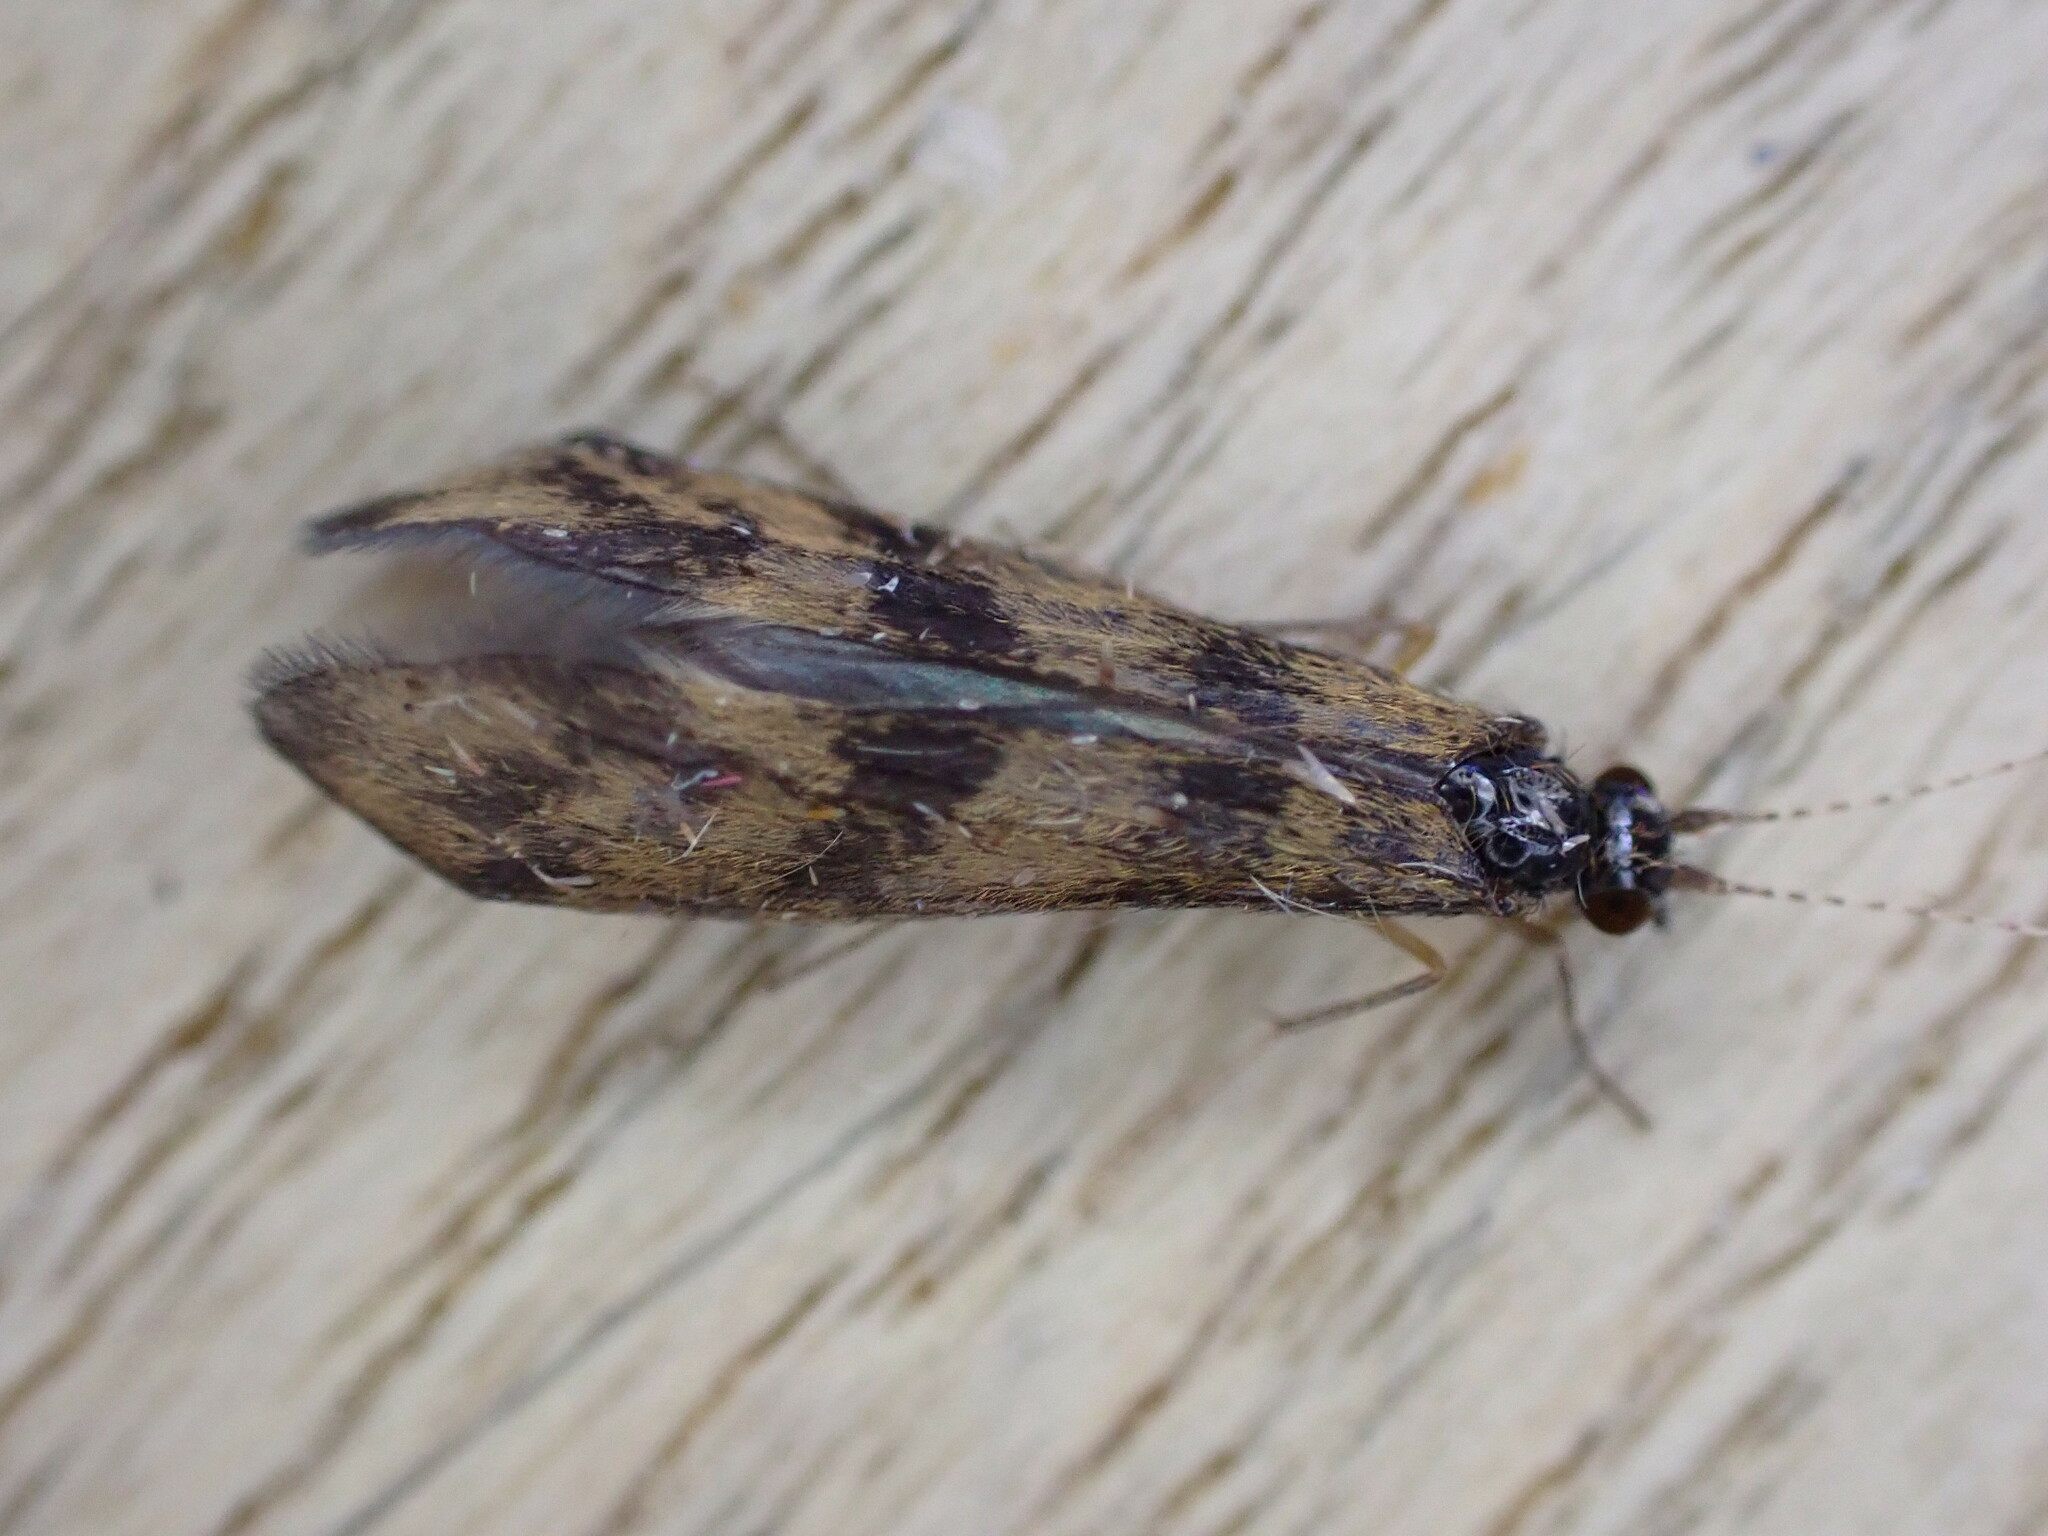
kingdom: Animalia
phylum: Arthropoda
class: Insecta
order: Trichoptera
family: Leptoceridae
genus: Mystacides
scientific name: Mystacides longicornis
